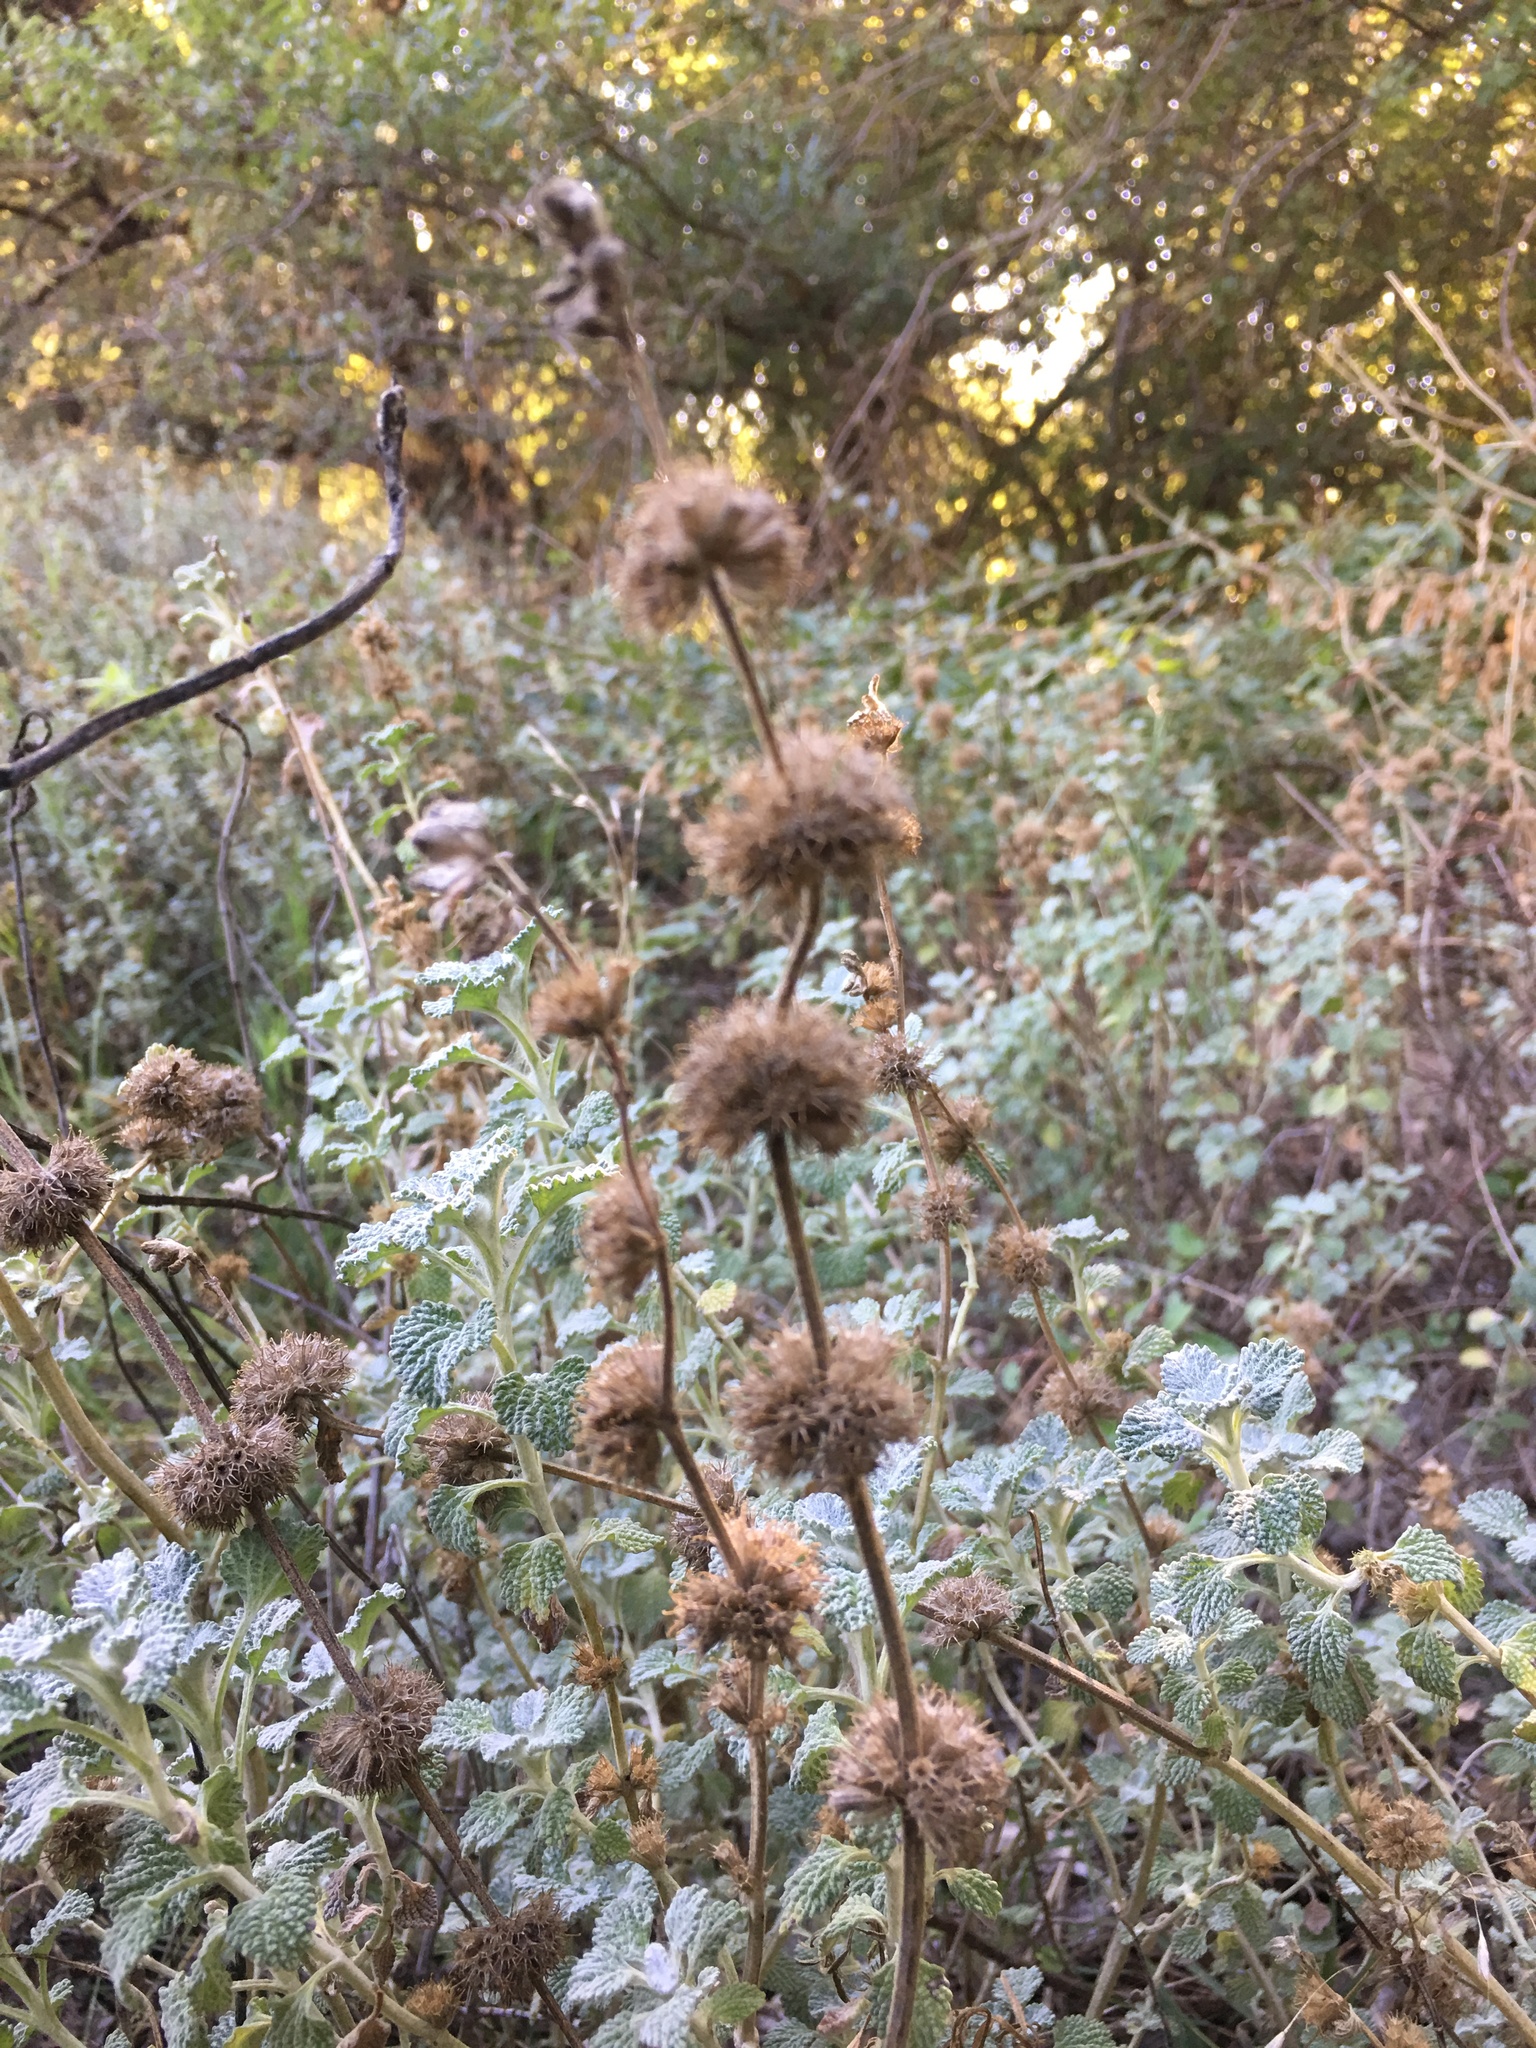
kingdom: Plantae
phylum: Tracheophyta
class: Magnoliopsida
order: Lamiales
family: Lamiaceae
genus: Marrubium
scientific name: Marrubium vulgare
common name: Horehound
